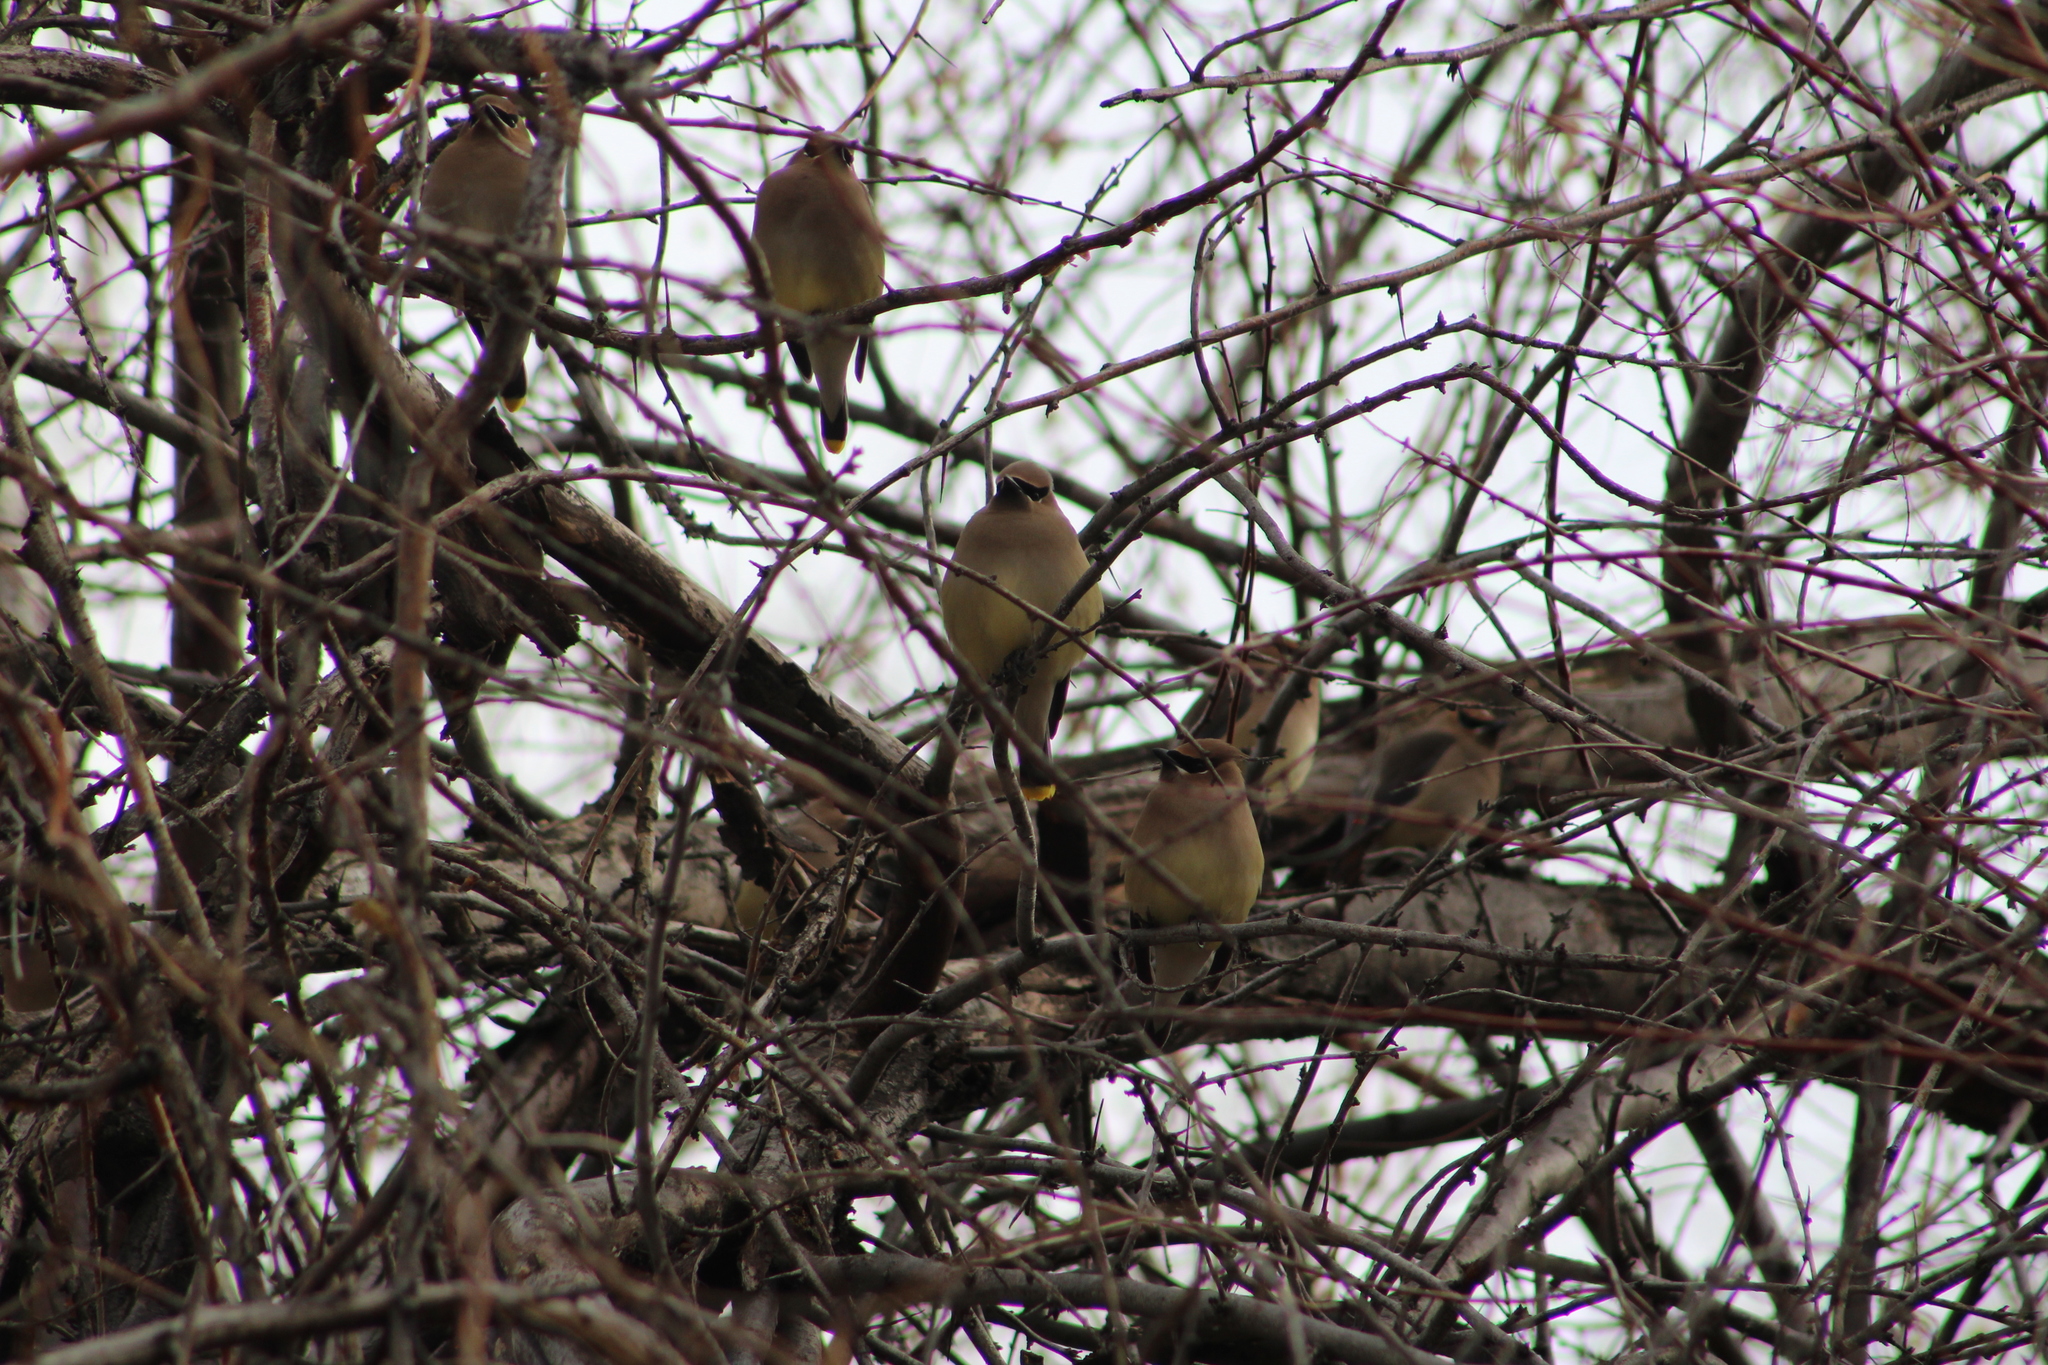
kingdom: Animalia
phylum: Chordata
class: Aves
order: Passeriformes
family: Bombycillidae
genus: Bombycilla
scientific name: Bombycilla cedrorum
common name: Cedar waxwing
